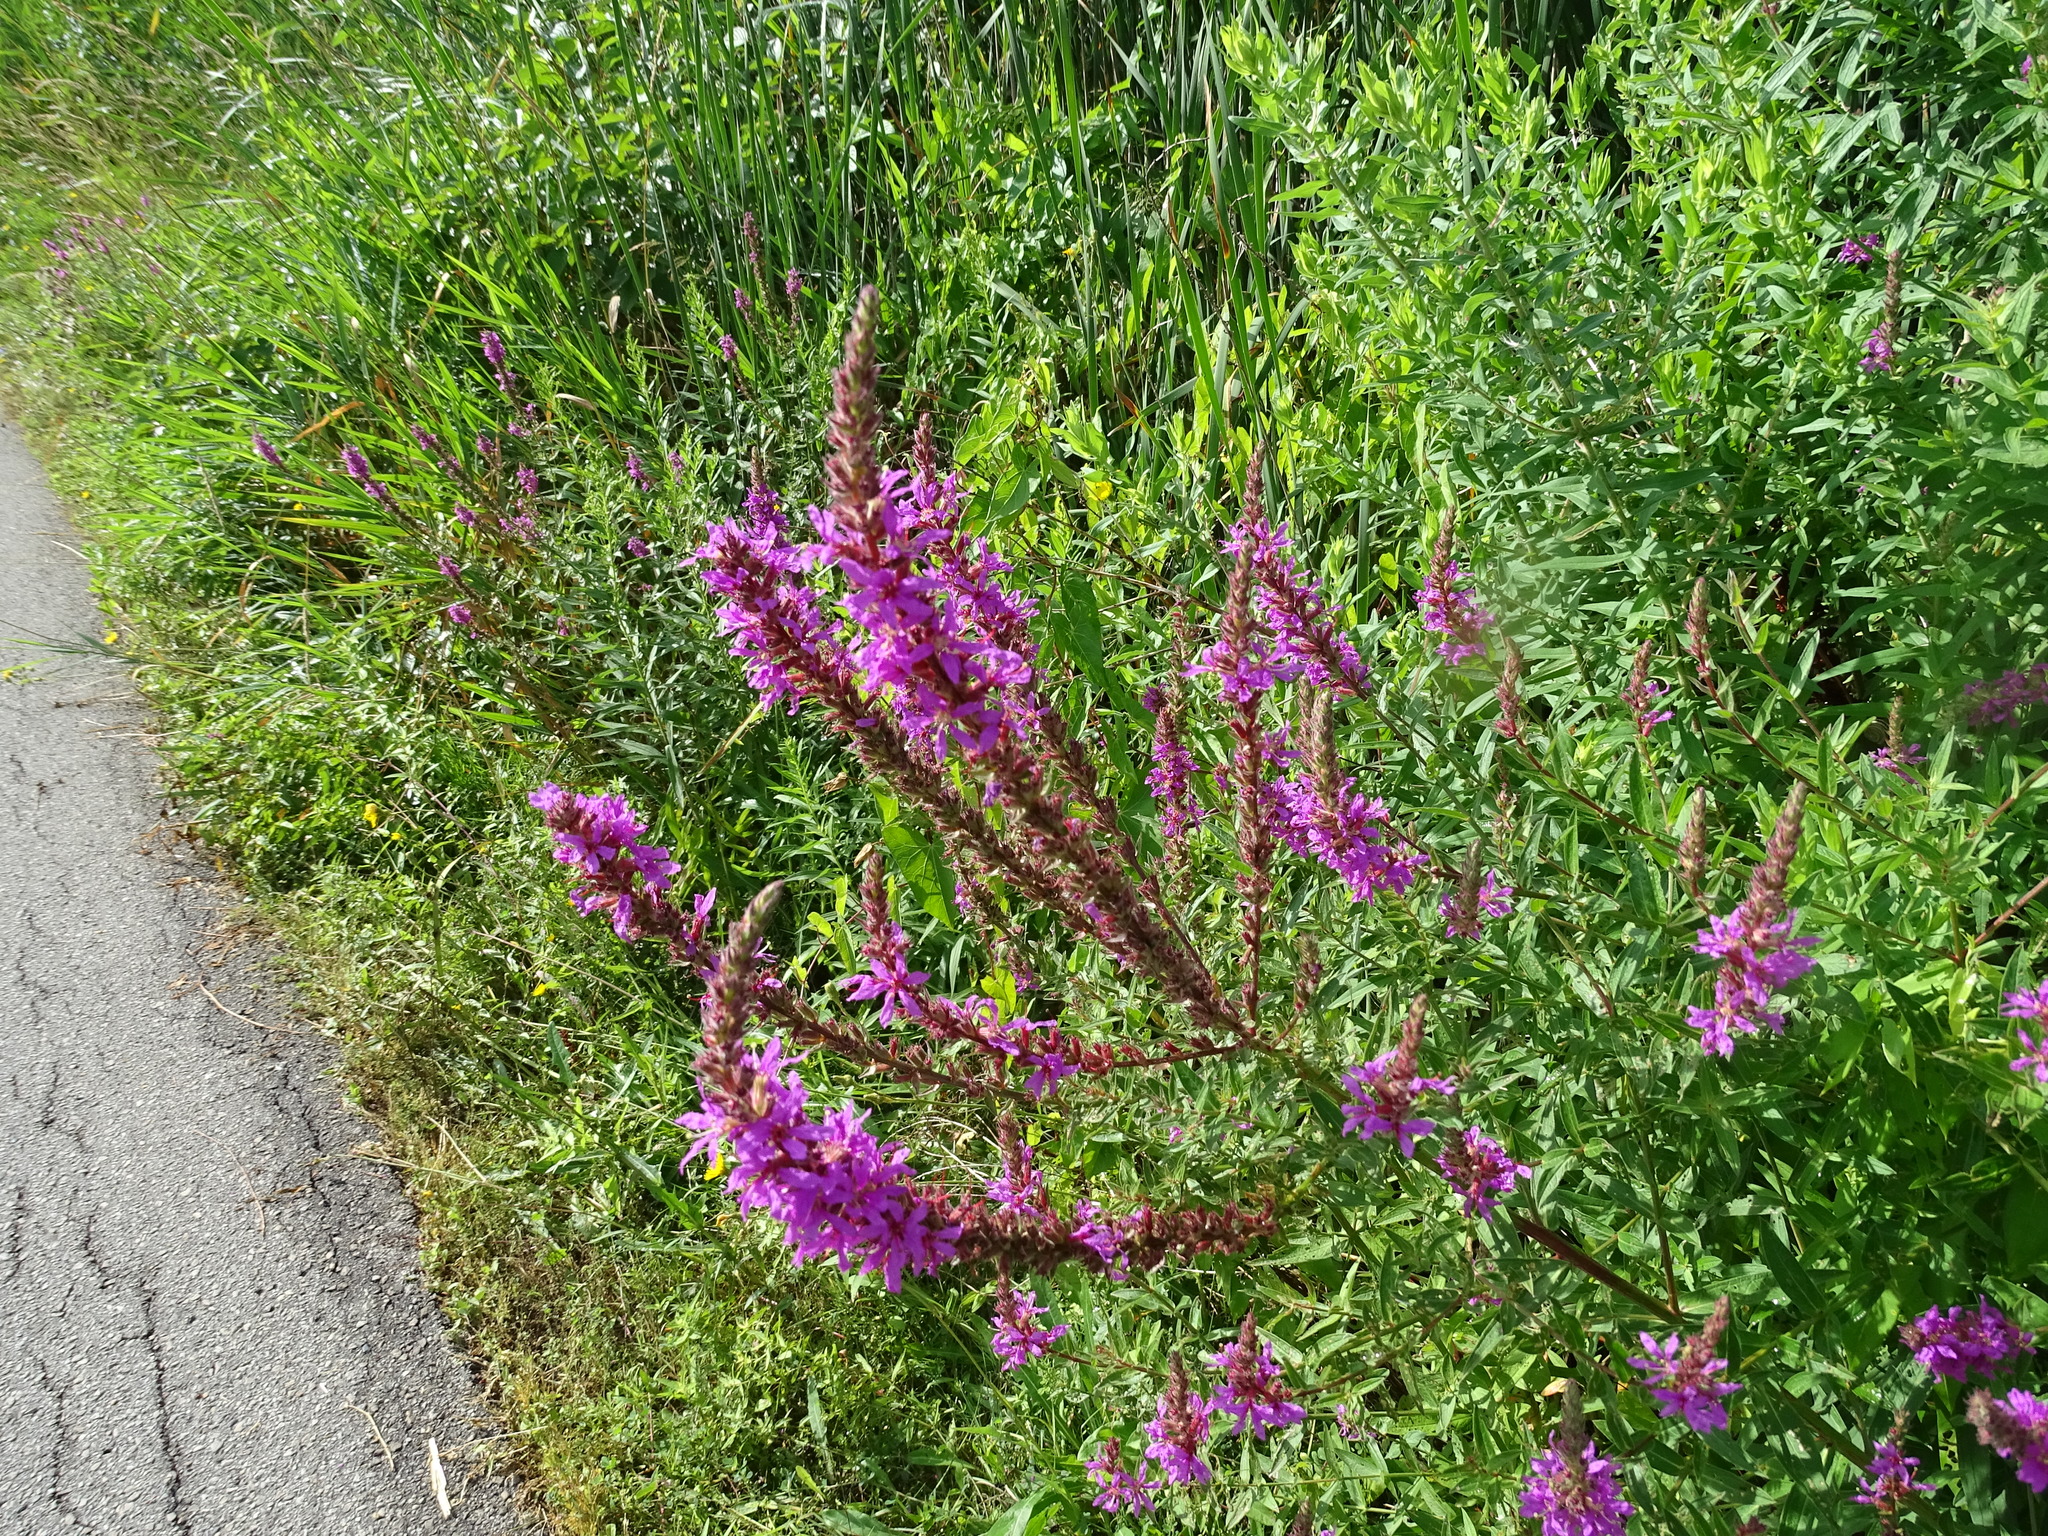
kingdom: Plantae
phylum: Tracheophyta
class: Magnoliopsida
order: Myrtales
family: Lythraceae
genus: Lythrum
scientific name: Lythrum salicaria
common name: Purple loosestrife
